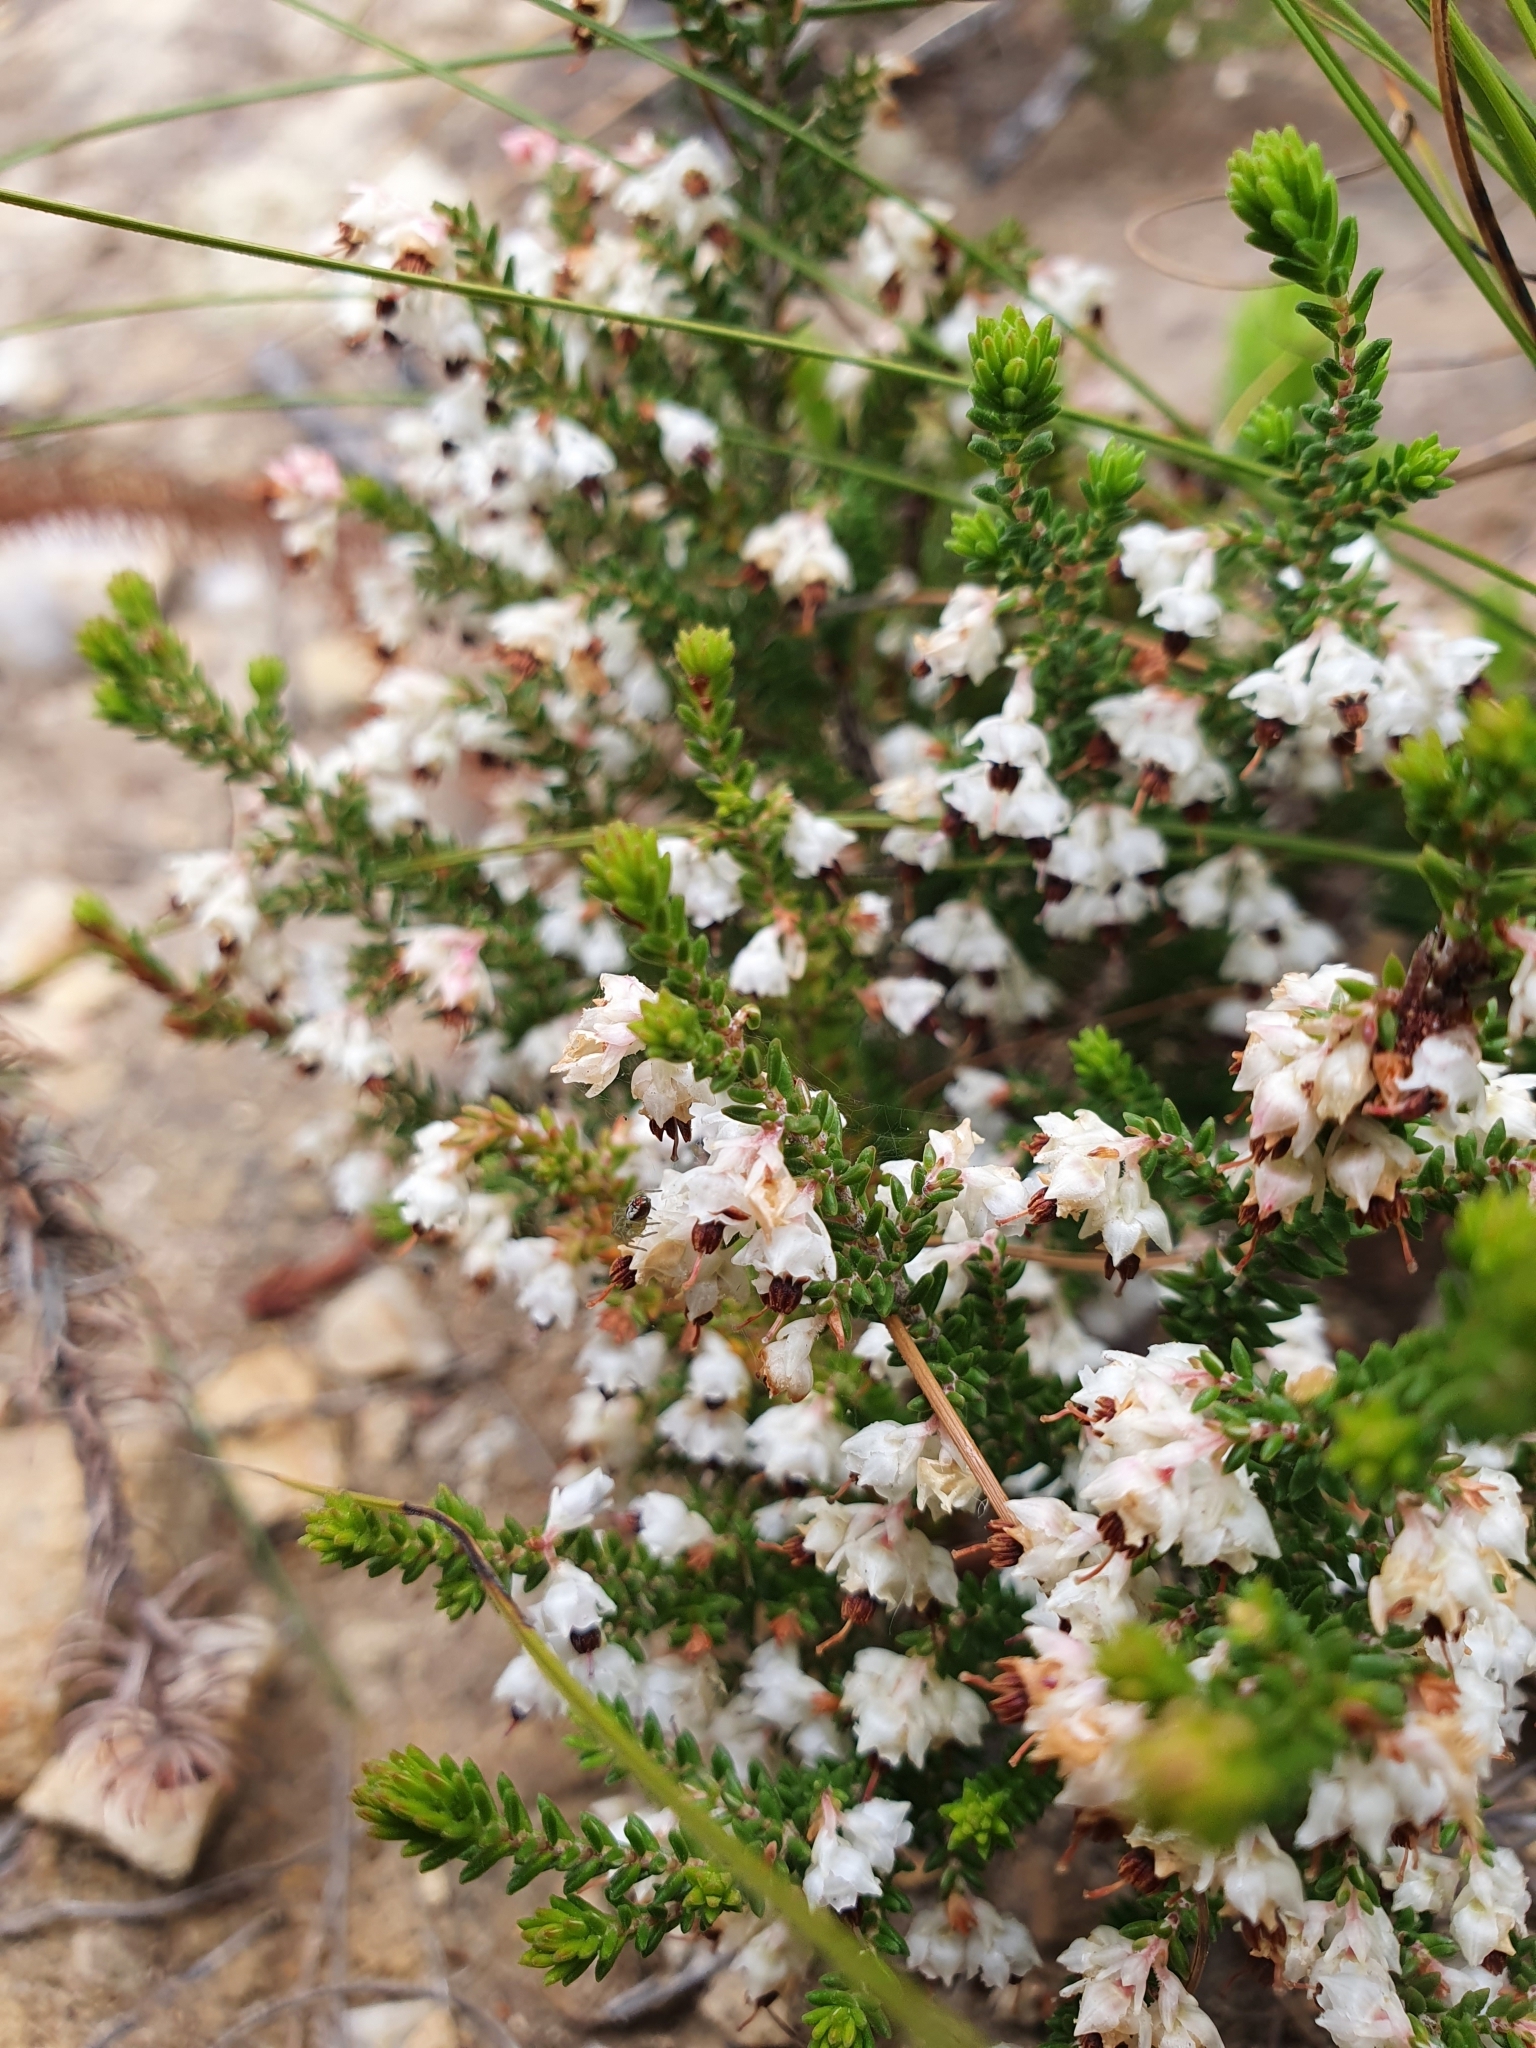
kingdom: Plantae
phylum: Tracheophyta
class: Magnoliopsida
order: Ericales
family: Ericaceae
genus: Erica
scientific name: Erica triceps
